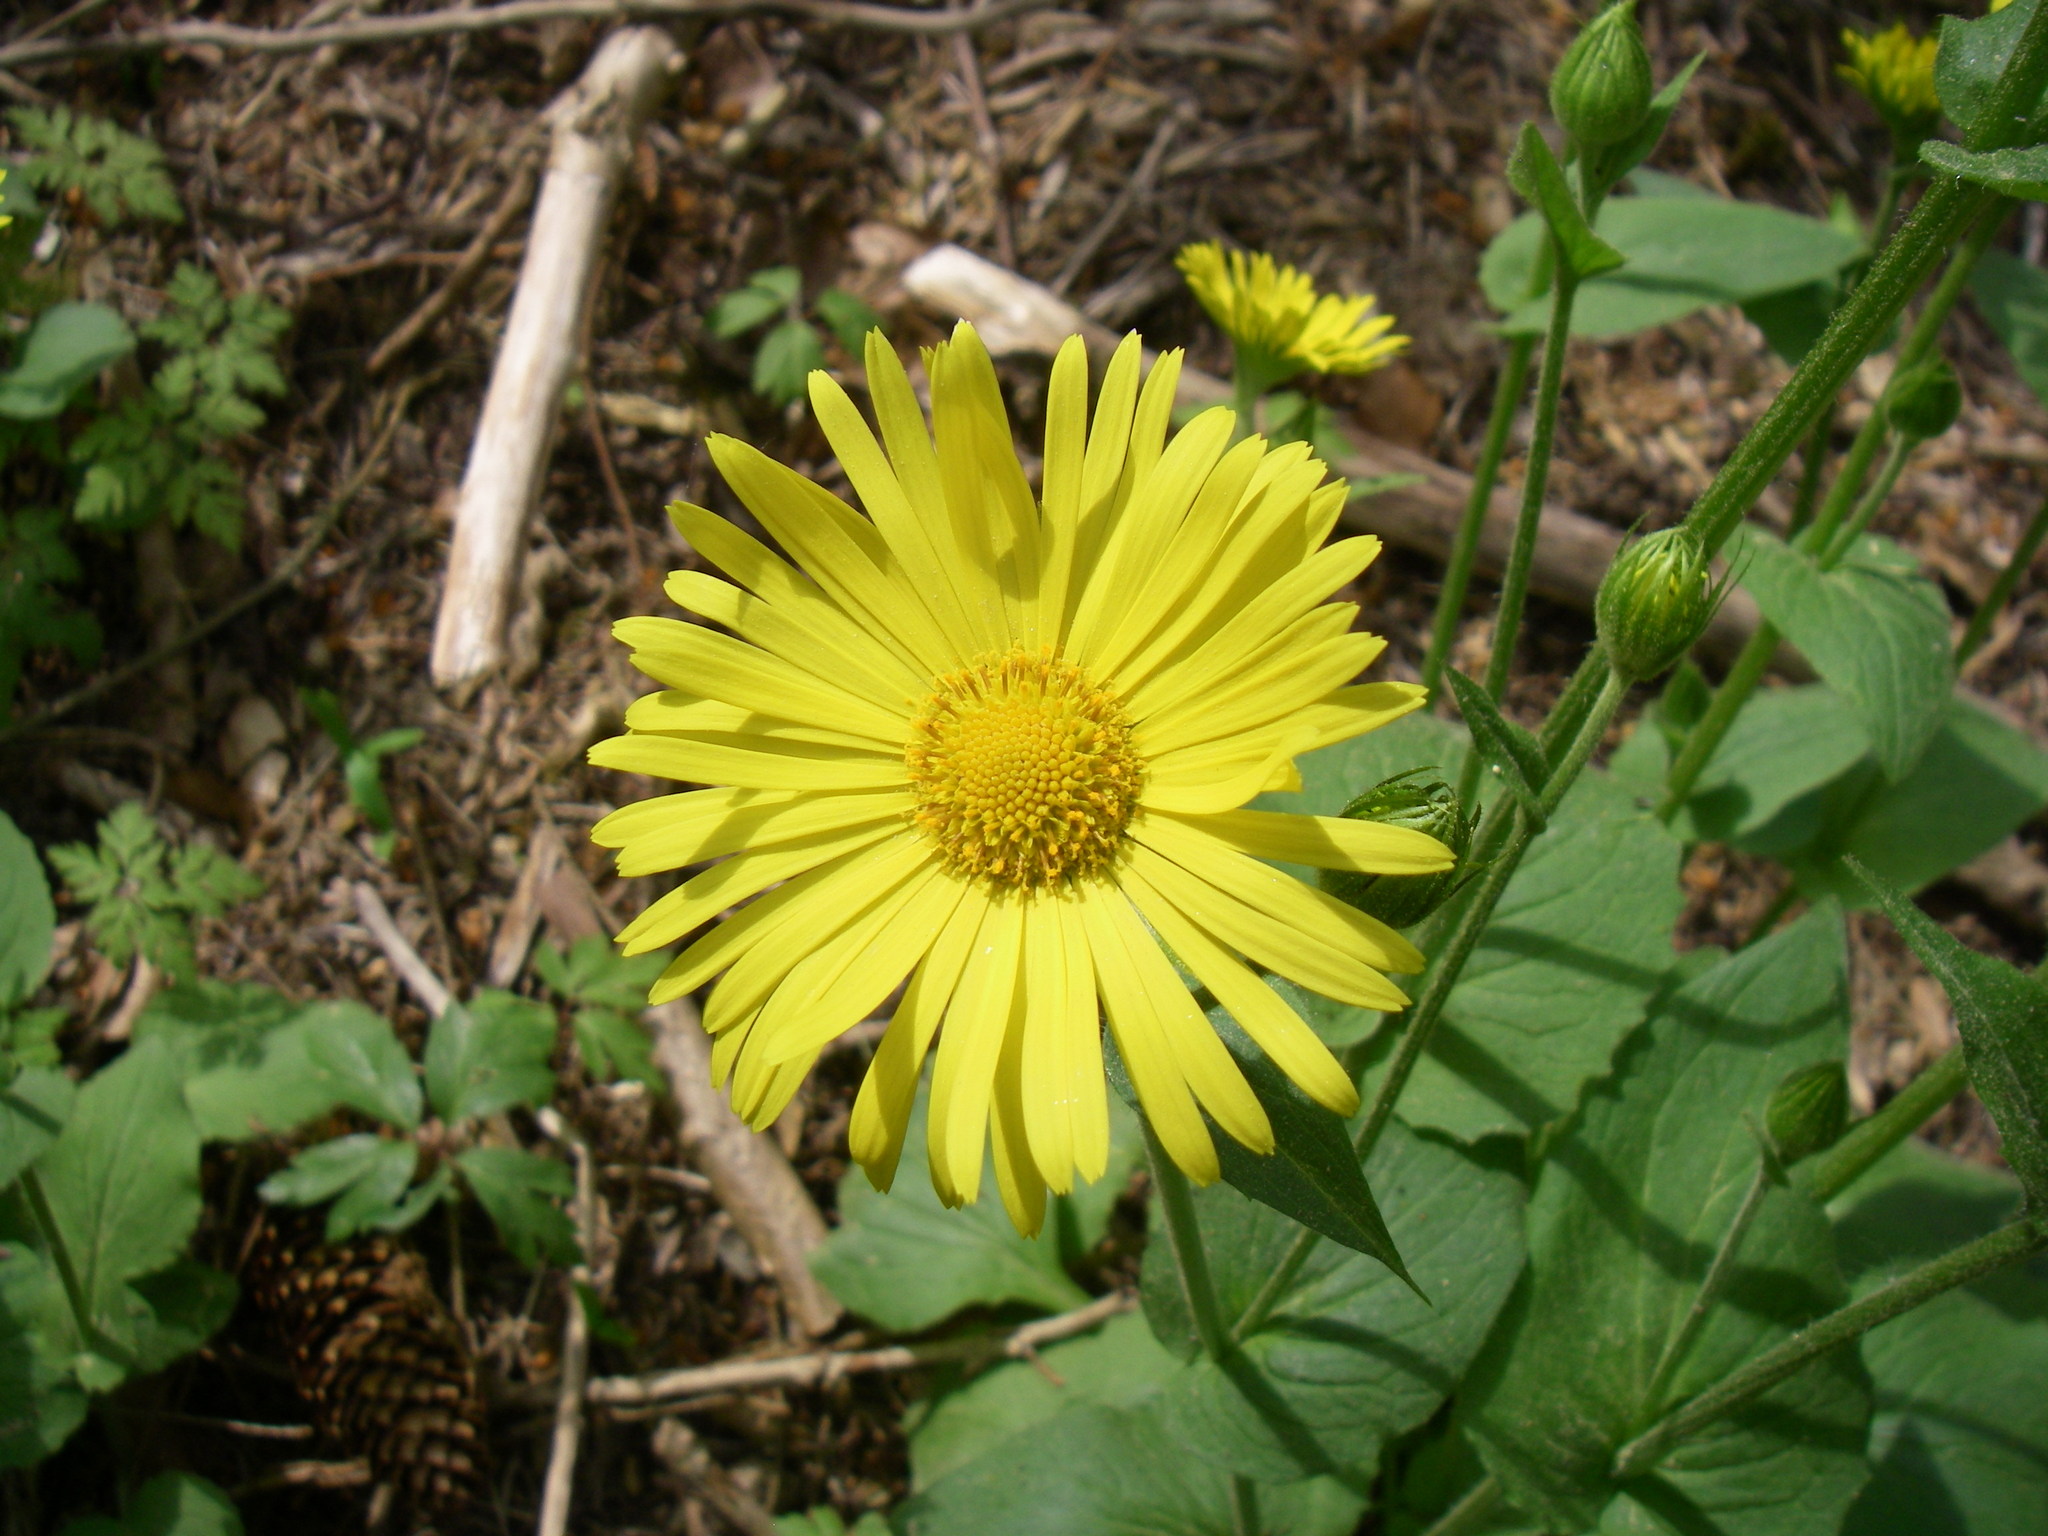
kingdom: Plantae
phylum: Tracheophyta
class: Magnoliopsida
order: Asterales
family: Asteraceae
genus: Doronicum
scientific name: Doronicum pardalianches
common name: Leopard's-bane
